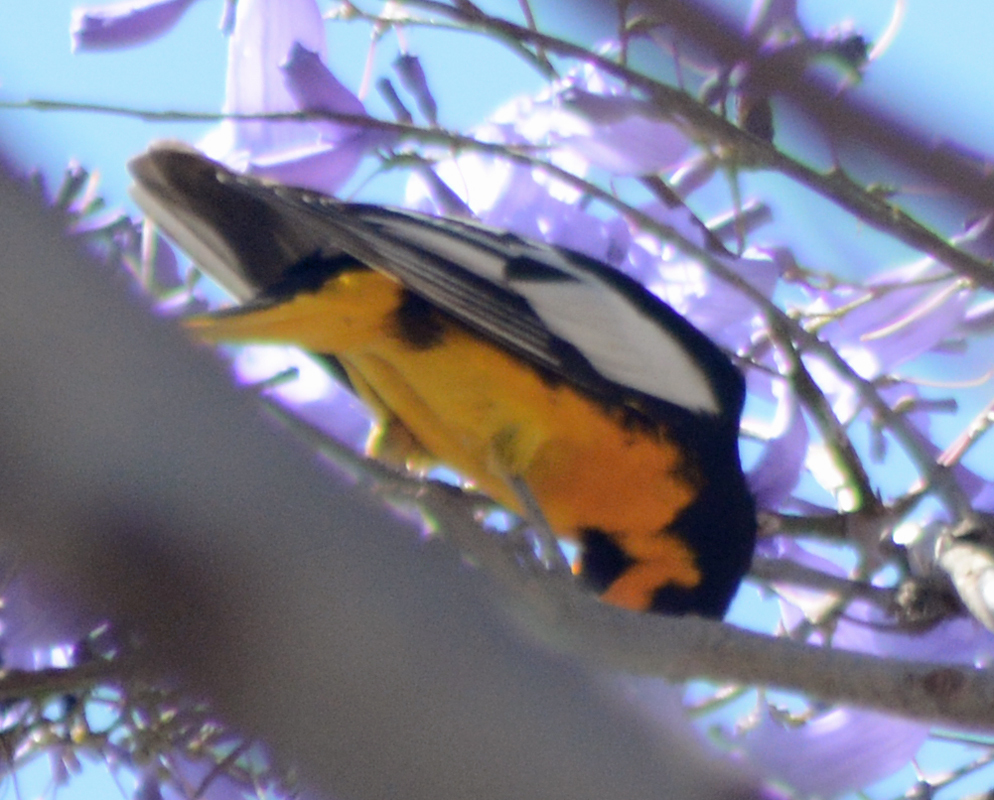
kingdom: Animalia
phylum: Chordata
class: Aves
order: Passeriformes
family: Icteridae
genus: Icterus
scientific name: Icterus abeillei
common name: Black-backed oriole
